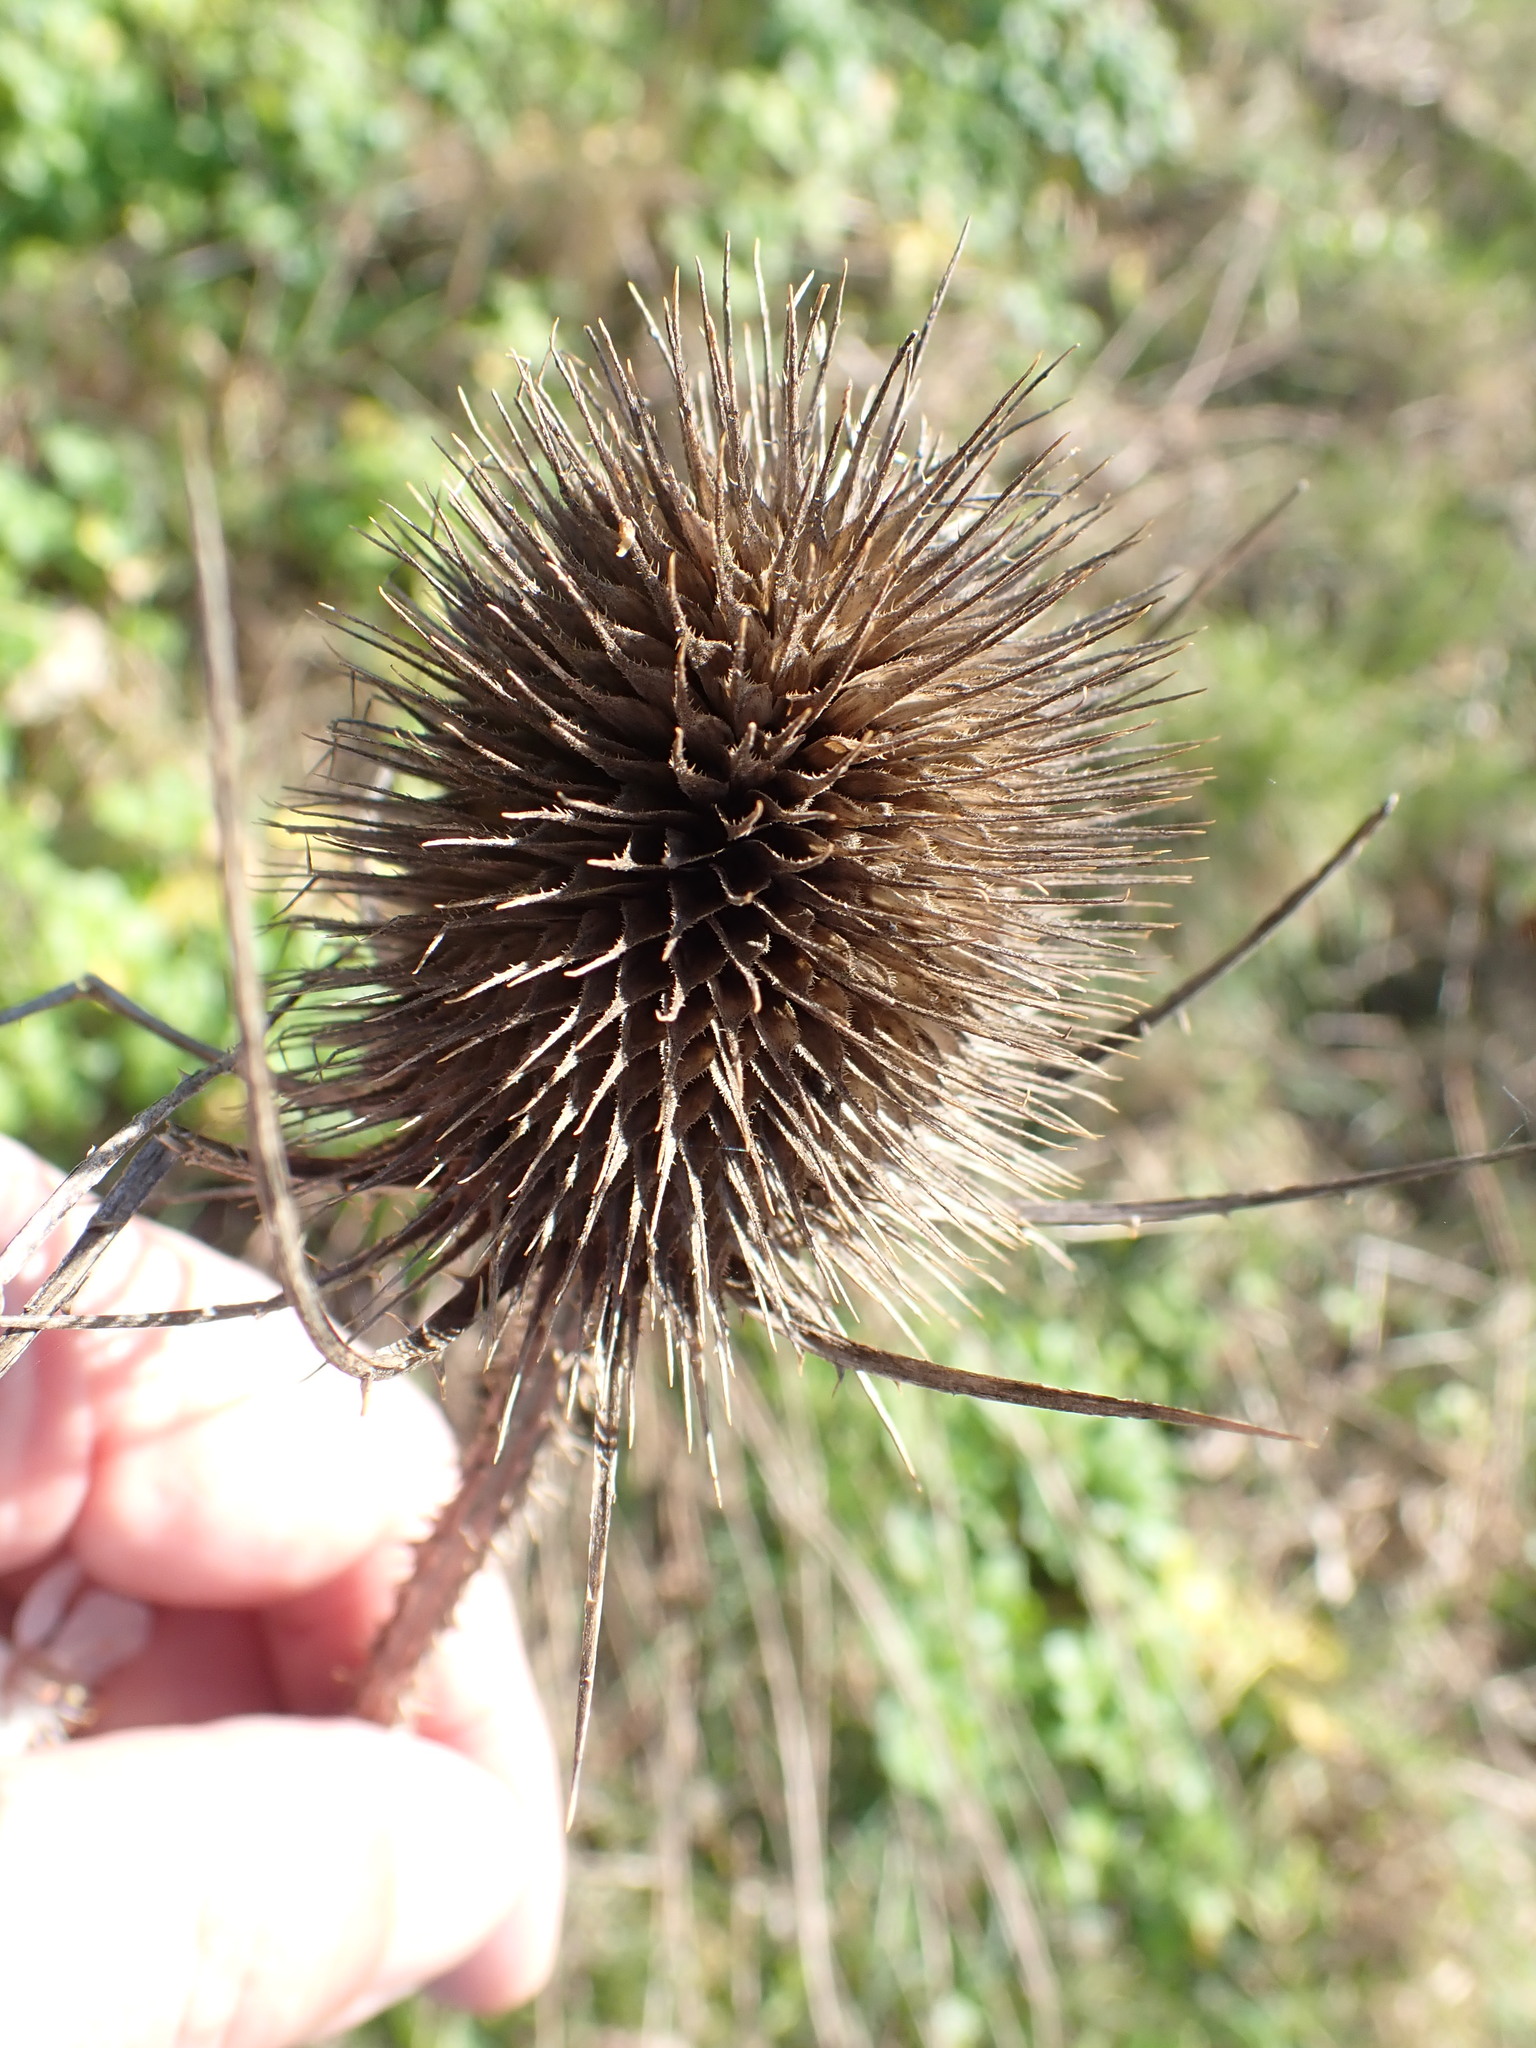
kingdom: Plantae
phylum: Tracheophyta
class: Magnoliopsida
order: Dipsacales
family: Caprifoliaceae
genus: Dipsacus
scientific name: Dipsacus fullonum
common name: Teasel
